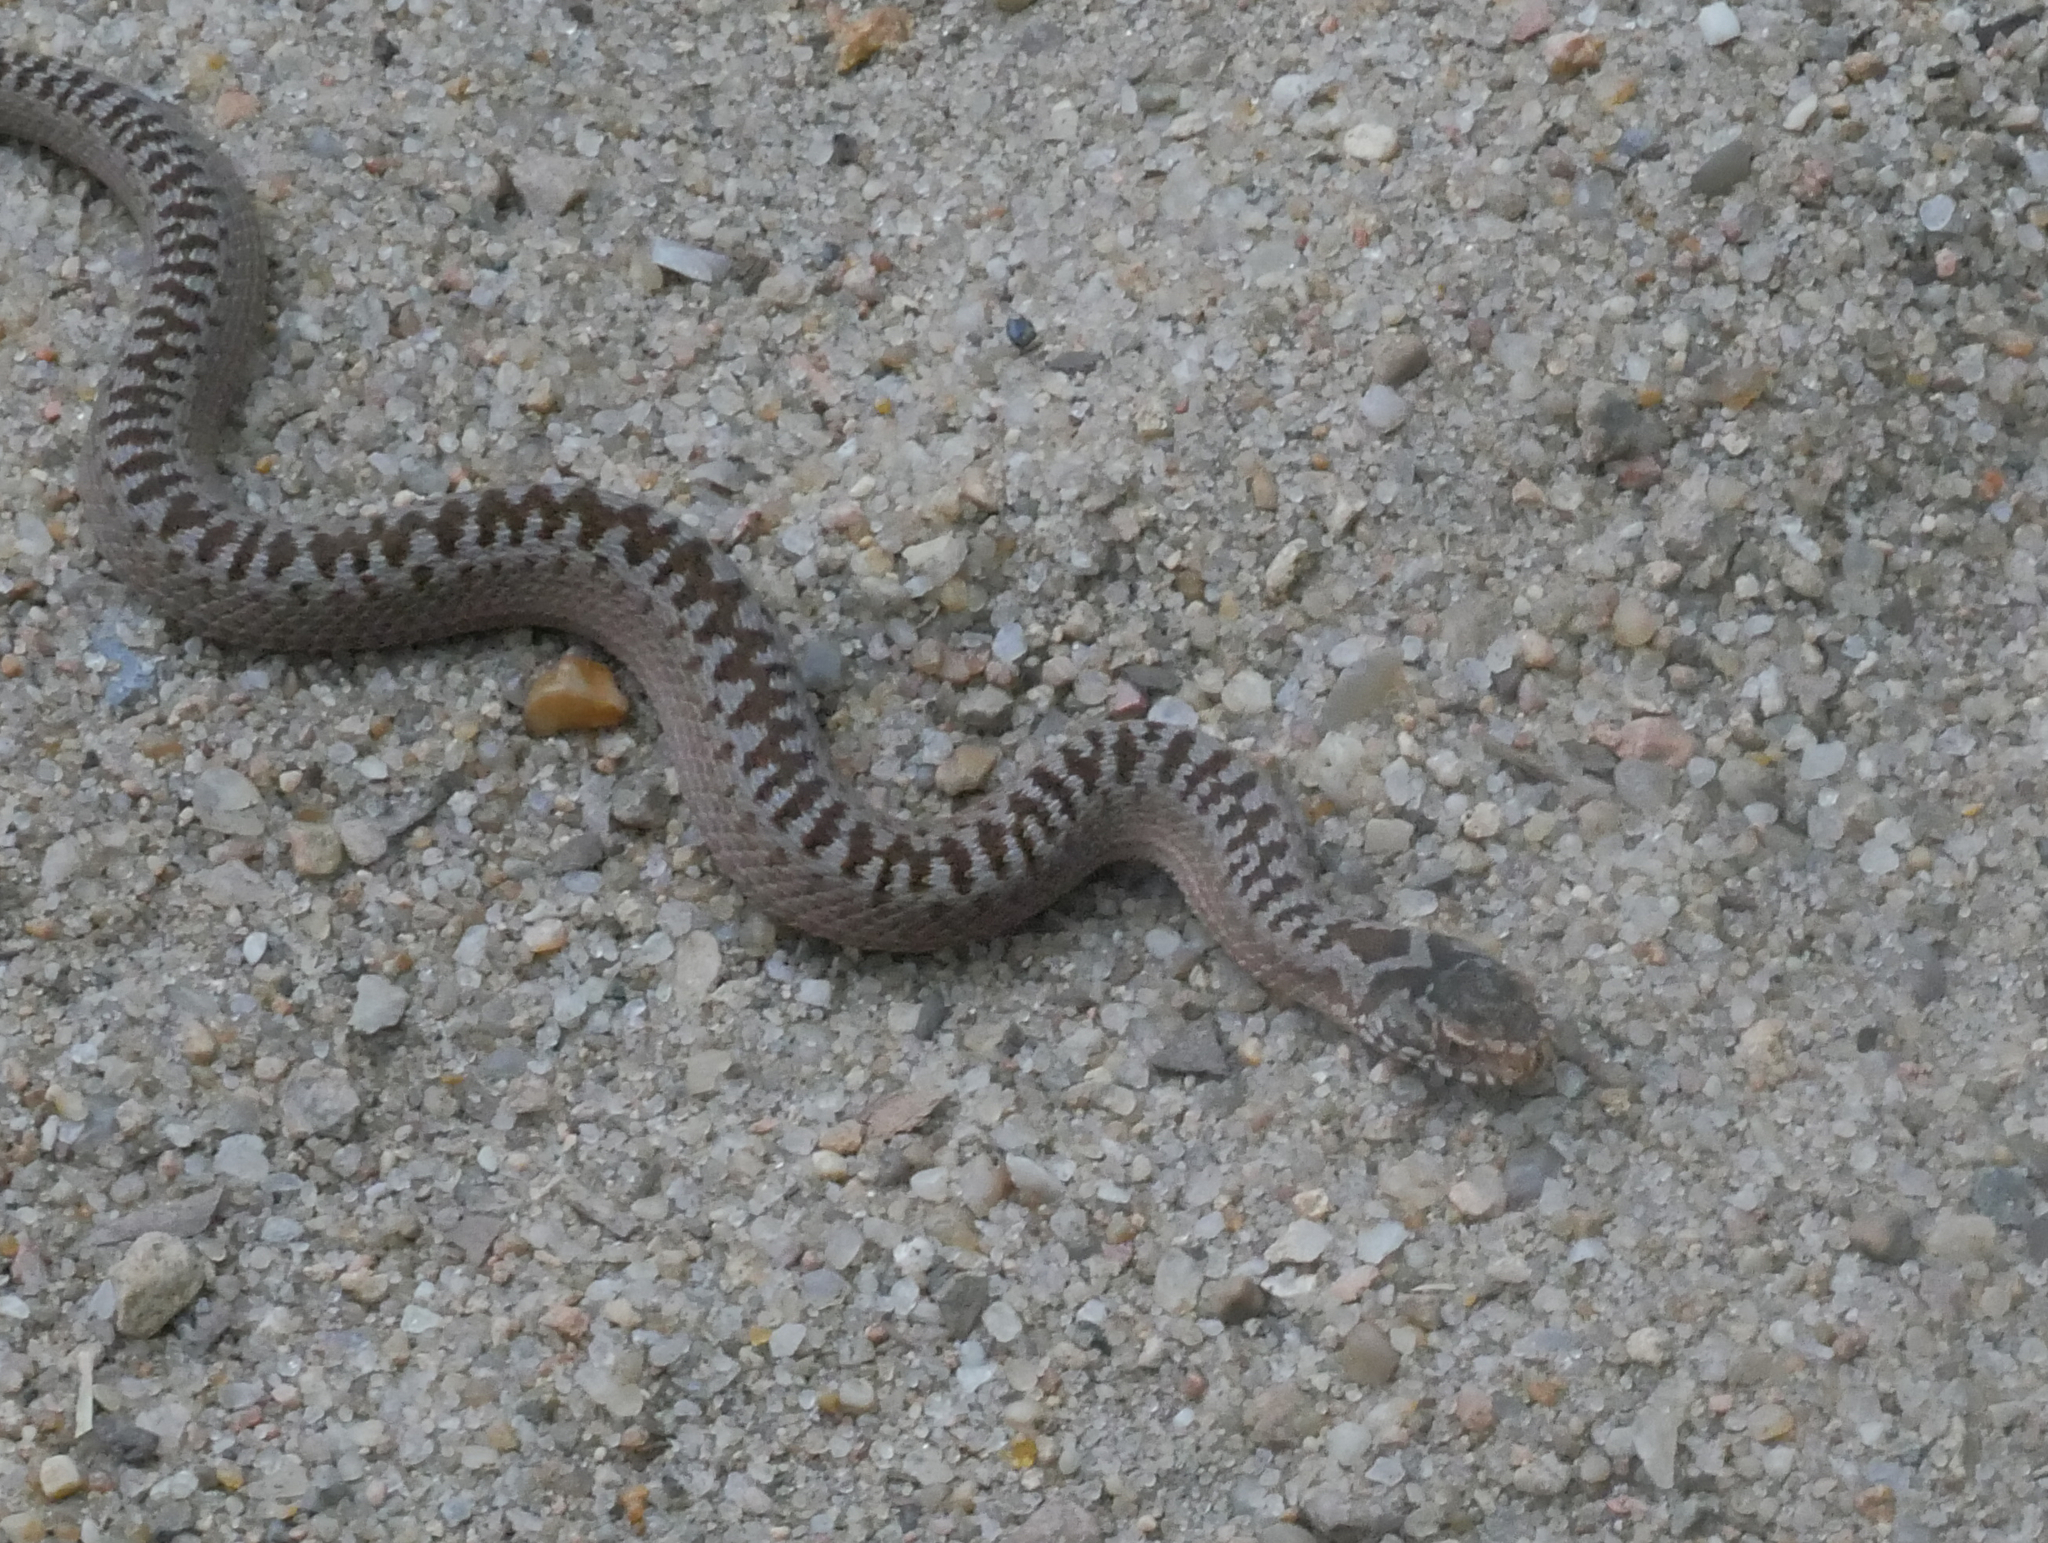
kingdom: Animalia
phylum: Chordata
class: Squamata
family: Viperidae
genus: Vipera
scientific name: Vipera berus
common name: Adder
